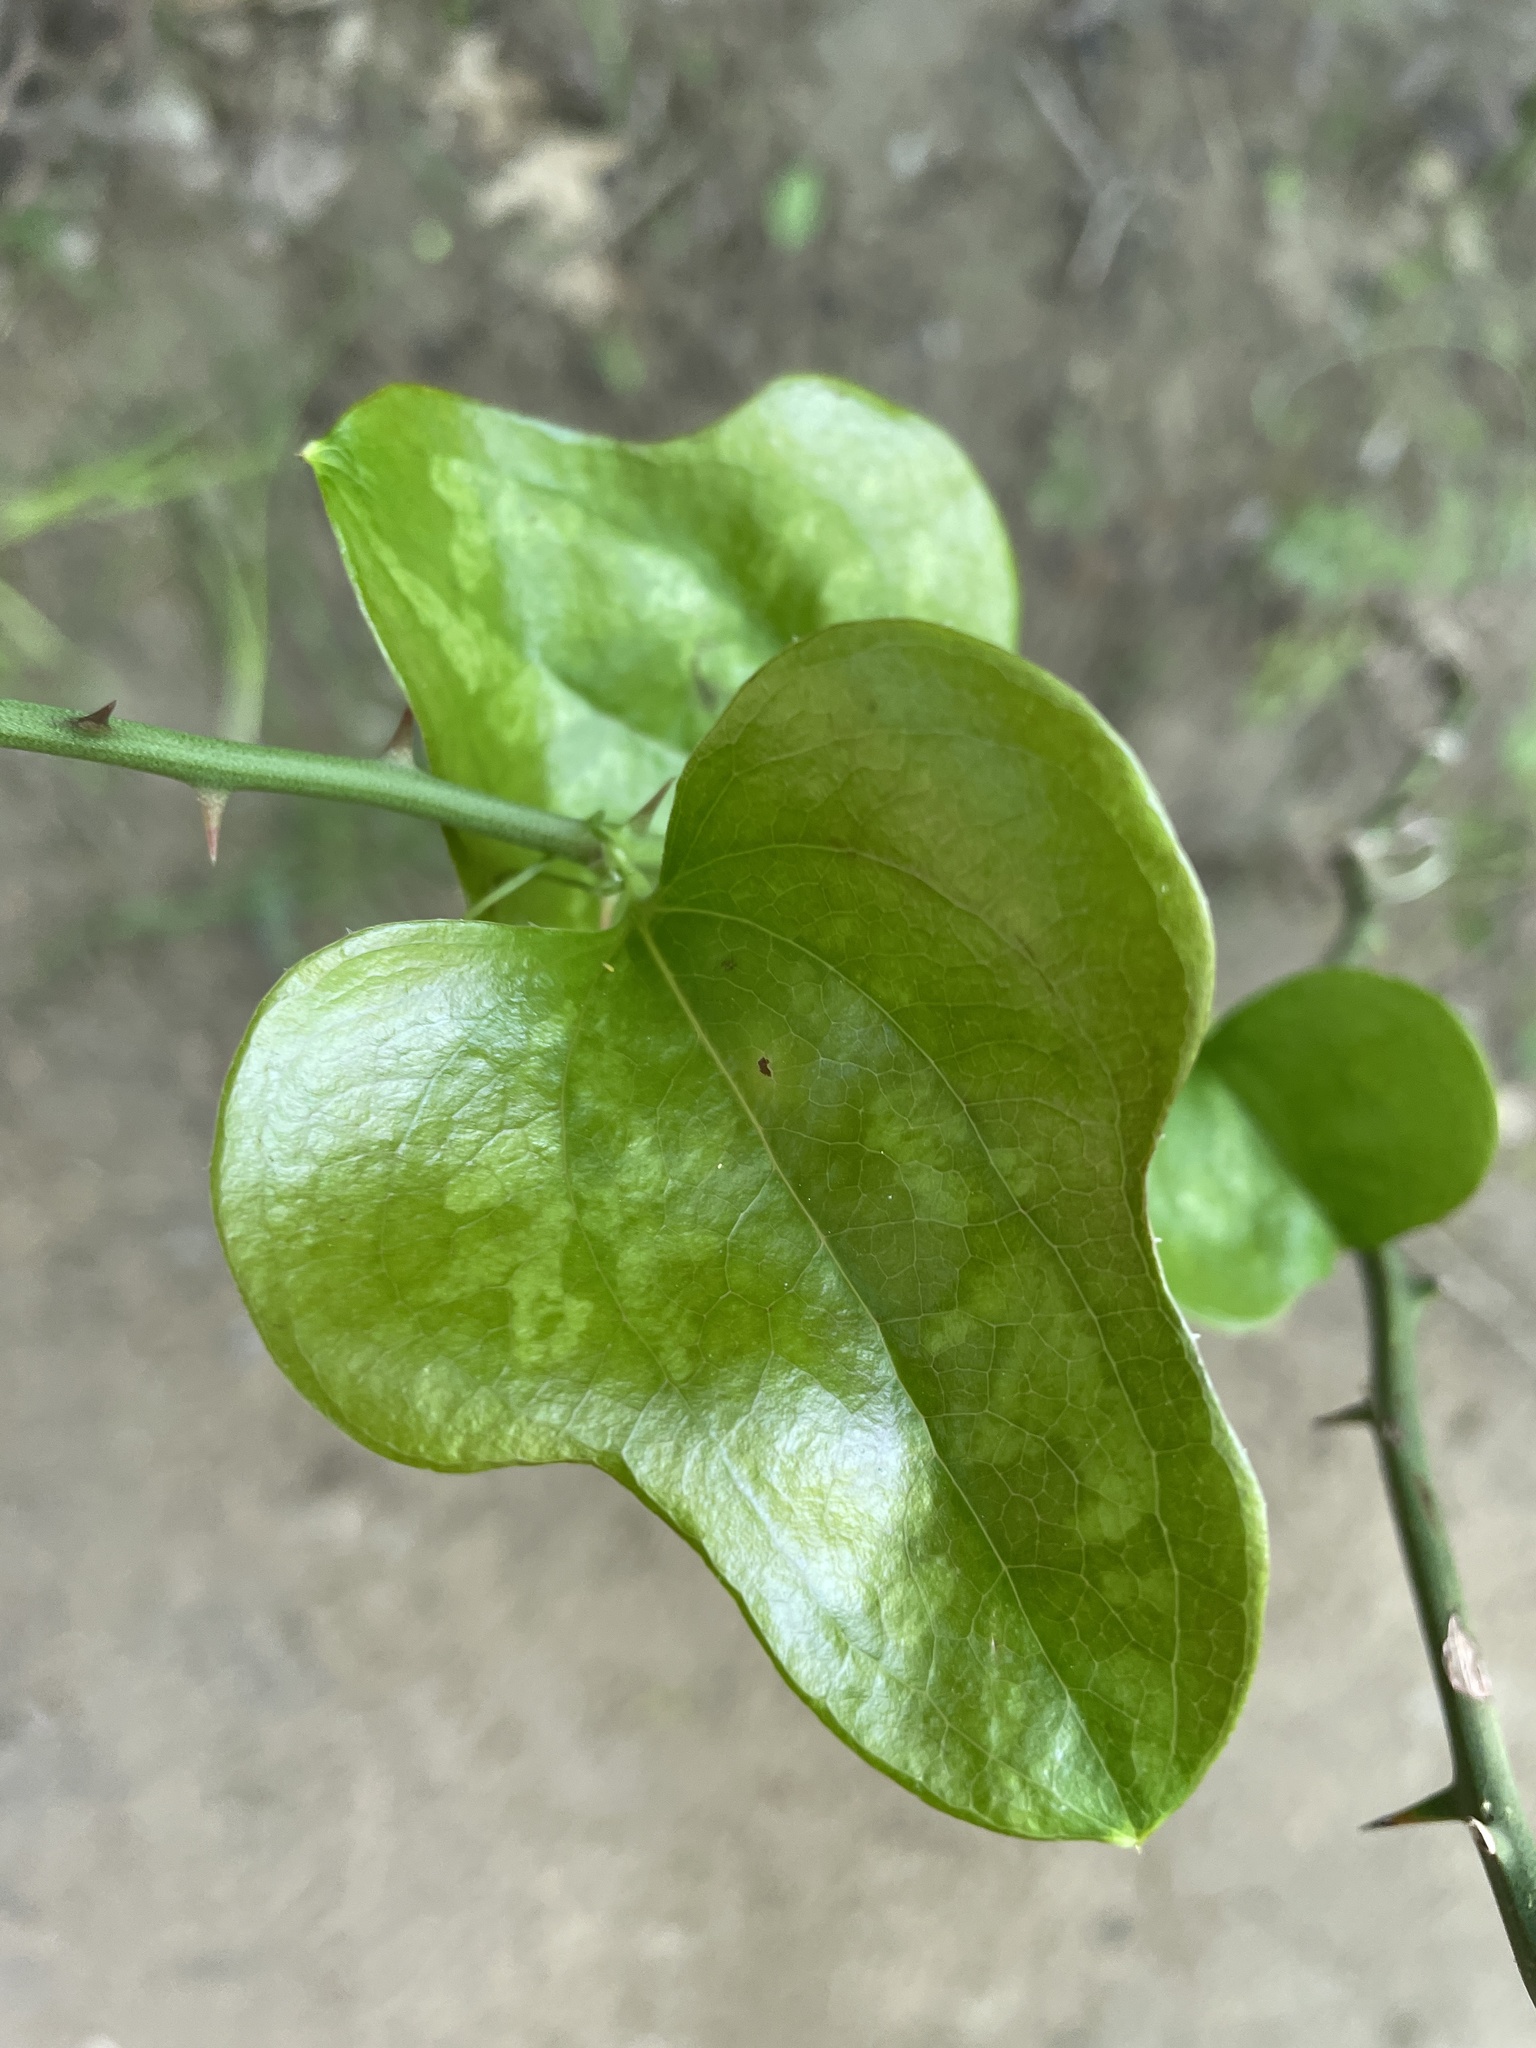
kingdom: Plantae
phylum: Tracheophyta
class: Liliopsida
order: Liliales
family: Smilacaceae
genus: Smilax
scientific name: Smilax bona-nox
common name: Catbrier
